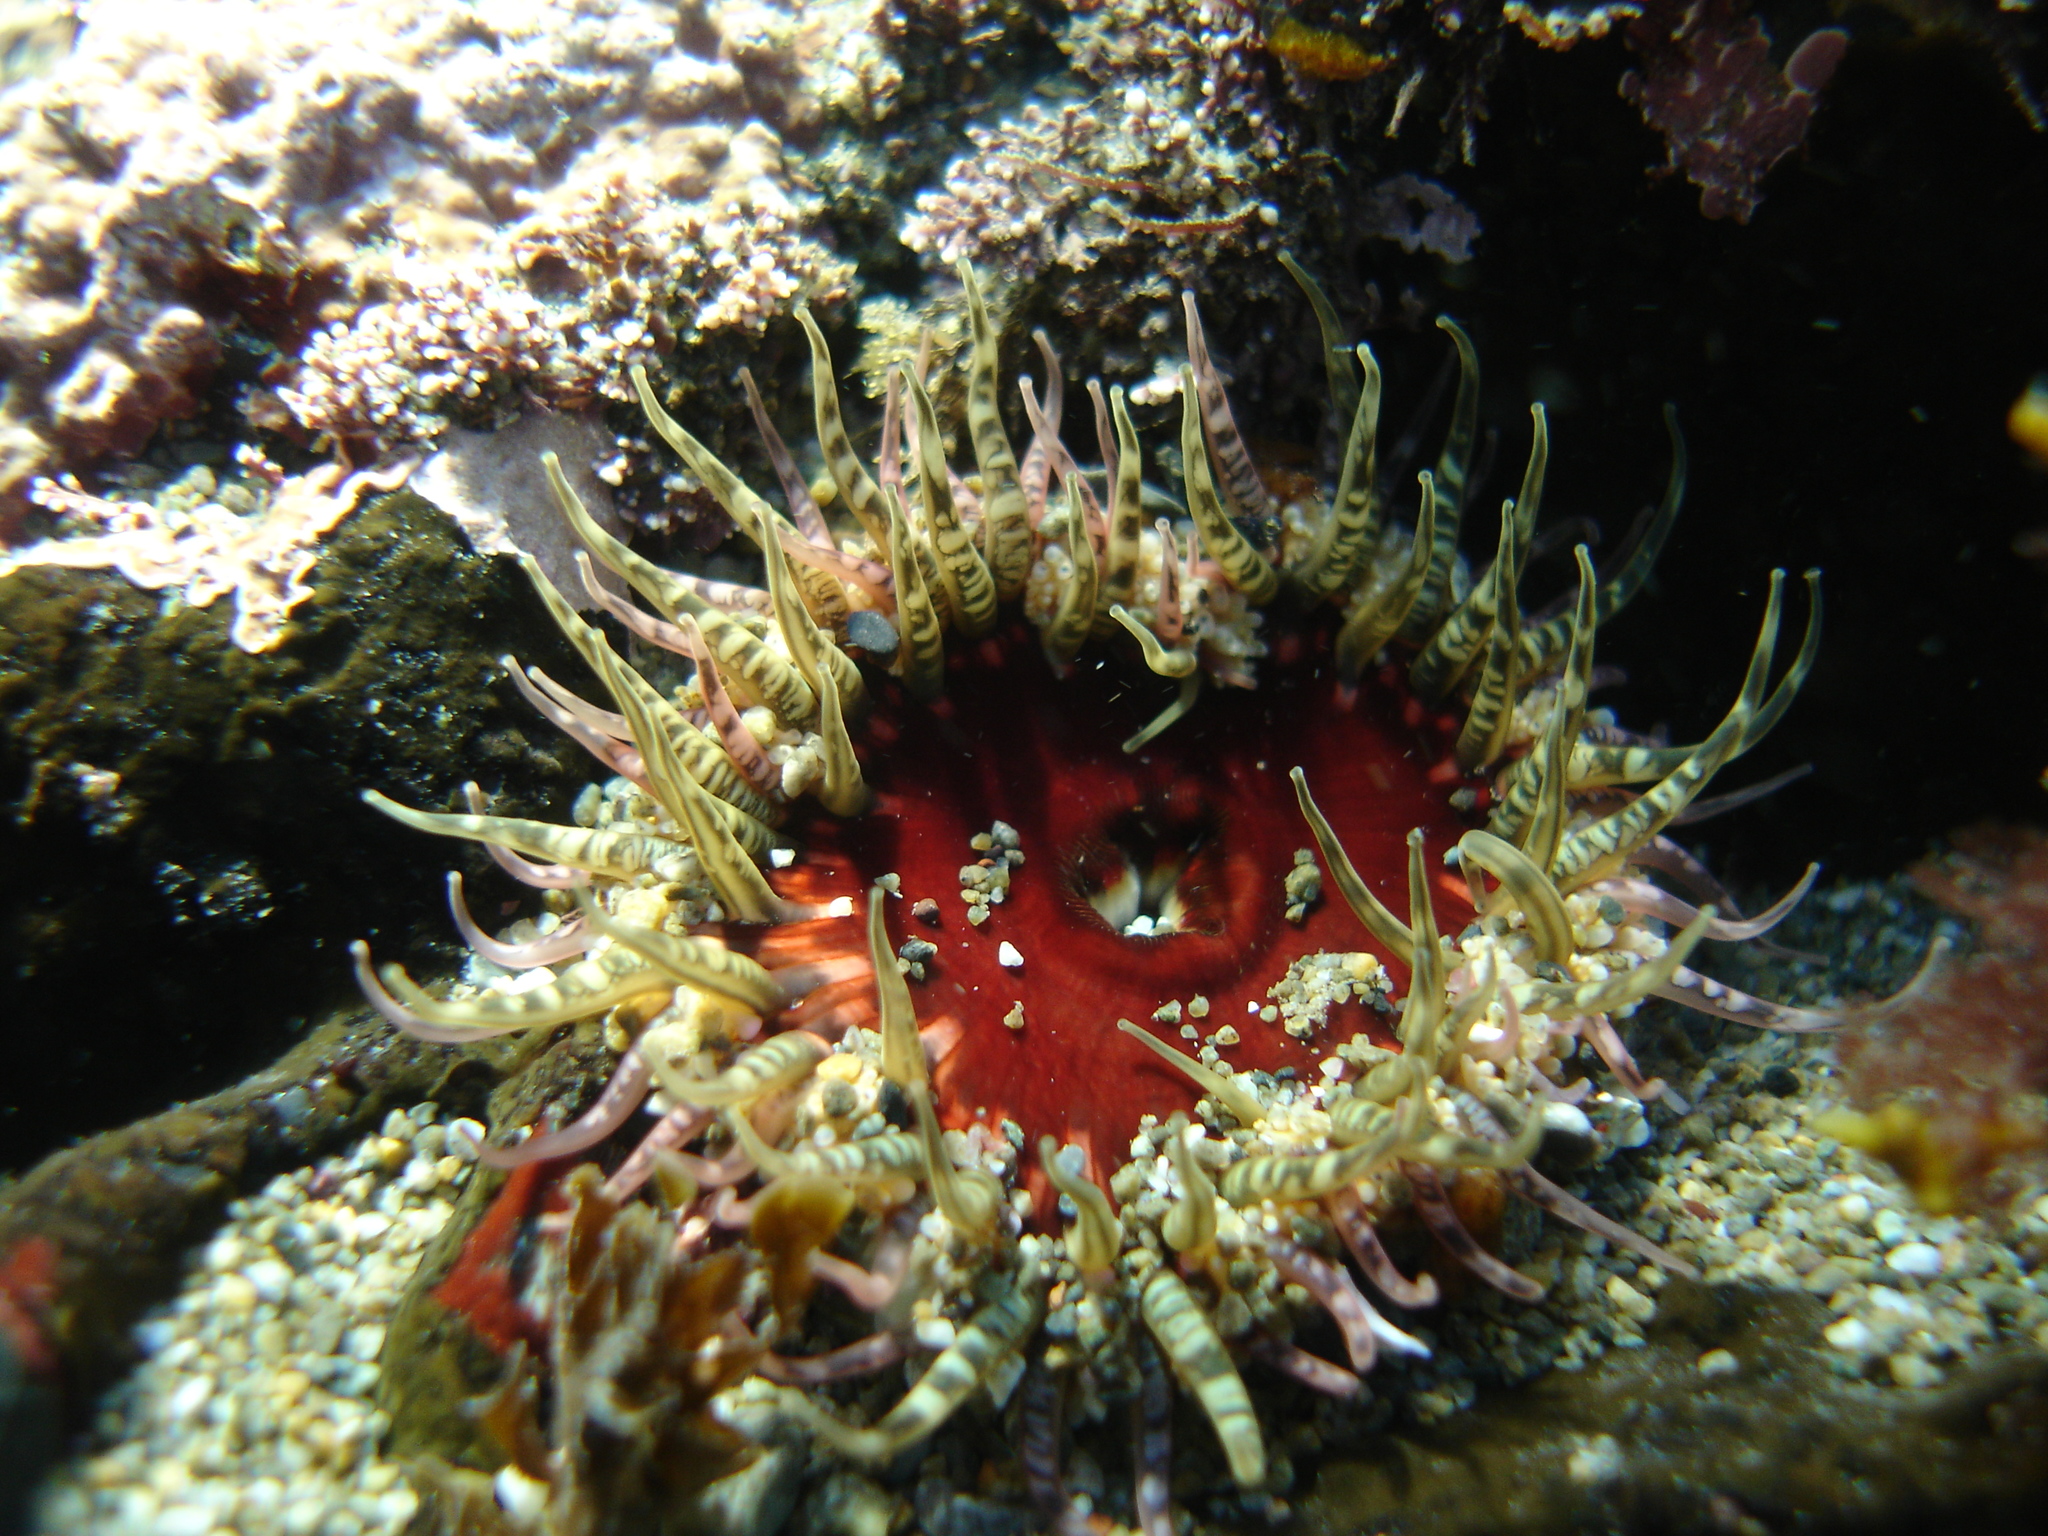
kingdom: Animalia
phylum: Cnidaria
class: Anthozoa
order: Actiniaria
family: Actiniidae
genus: Oulactis
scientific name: Oulactis muscosa
